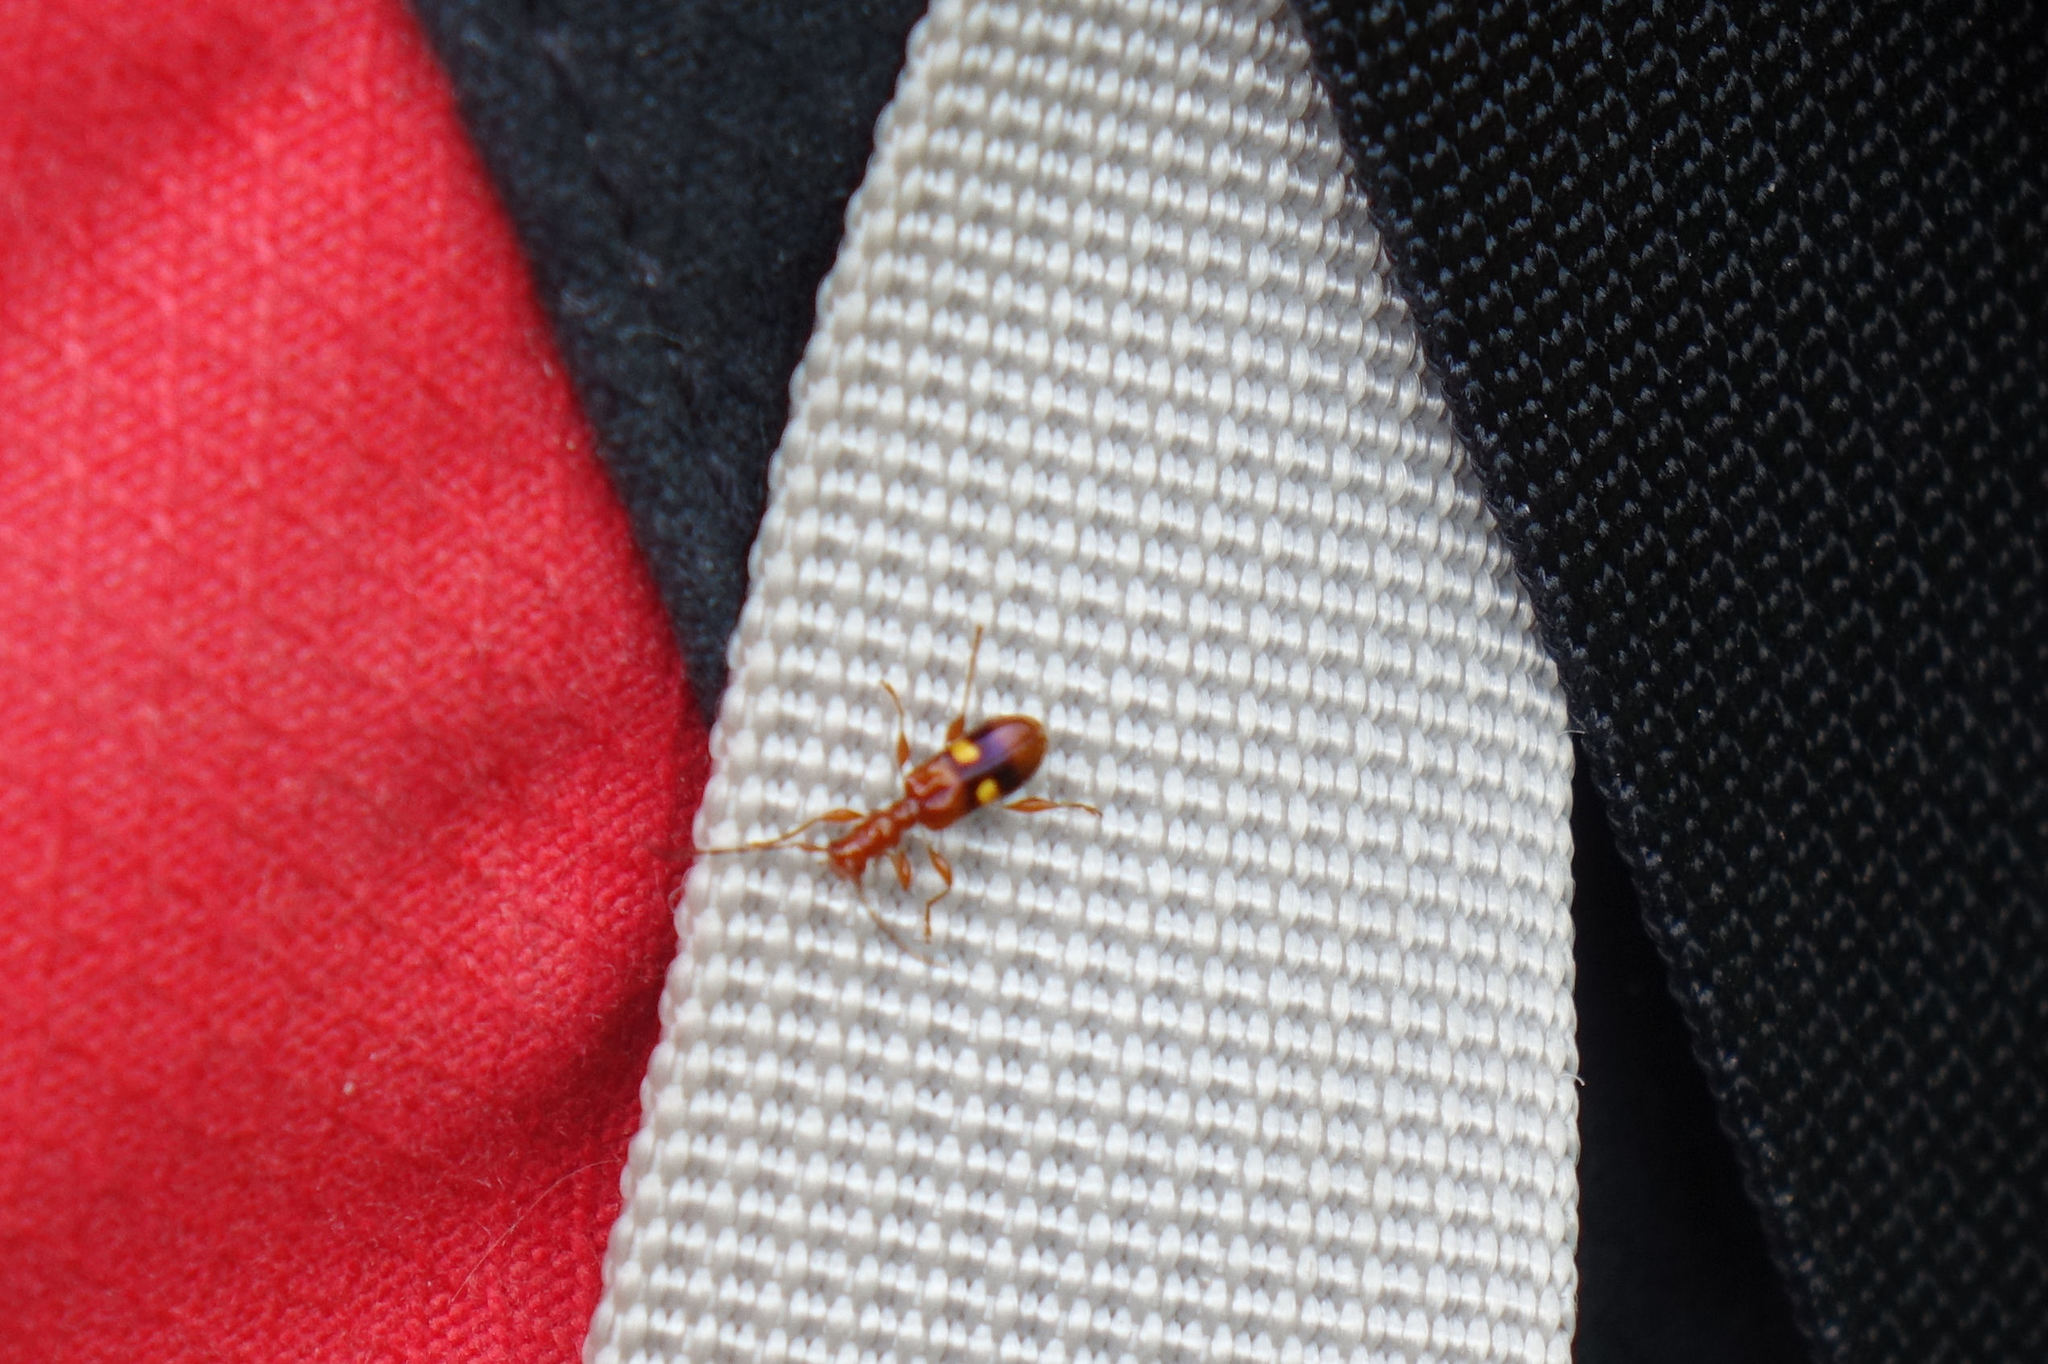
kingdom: Animalia
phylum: Arthropoda
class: Insecta
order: Coleoptera
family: Cerambycidae
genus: Zorion
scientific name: Zorion australe
